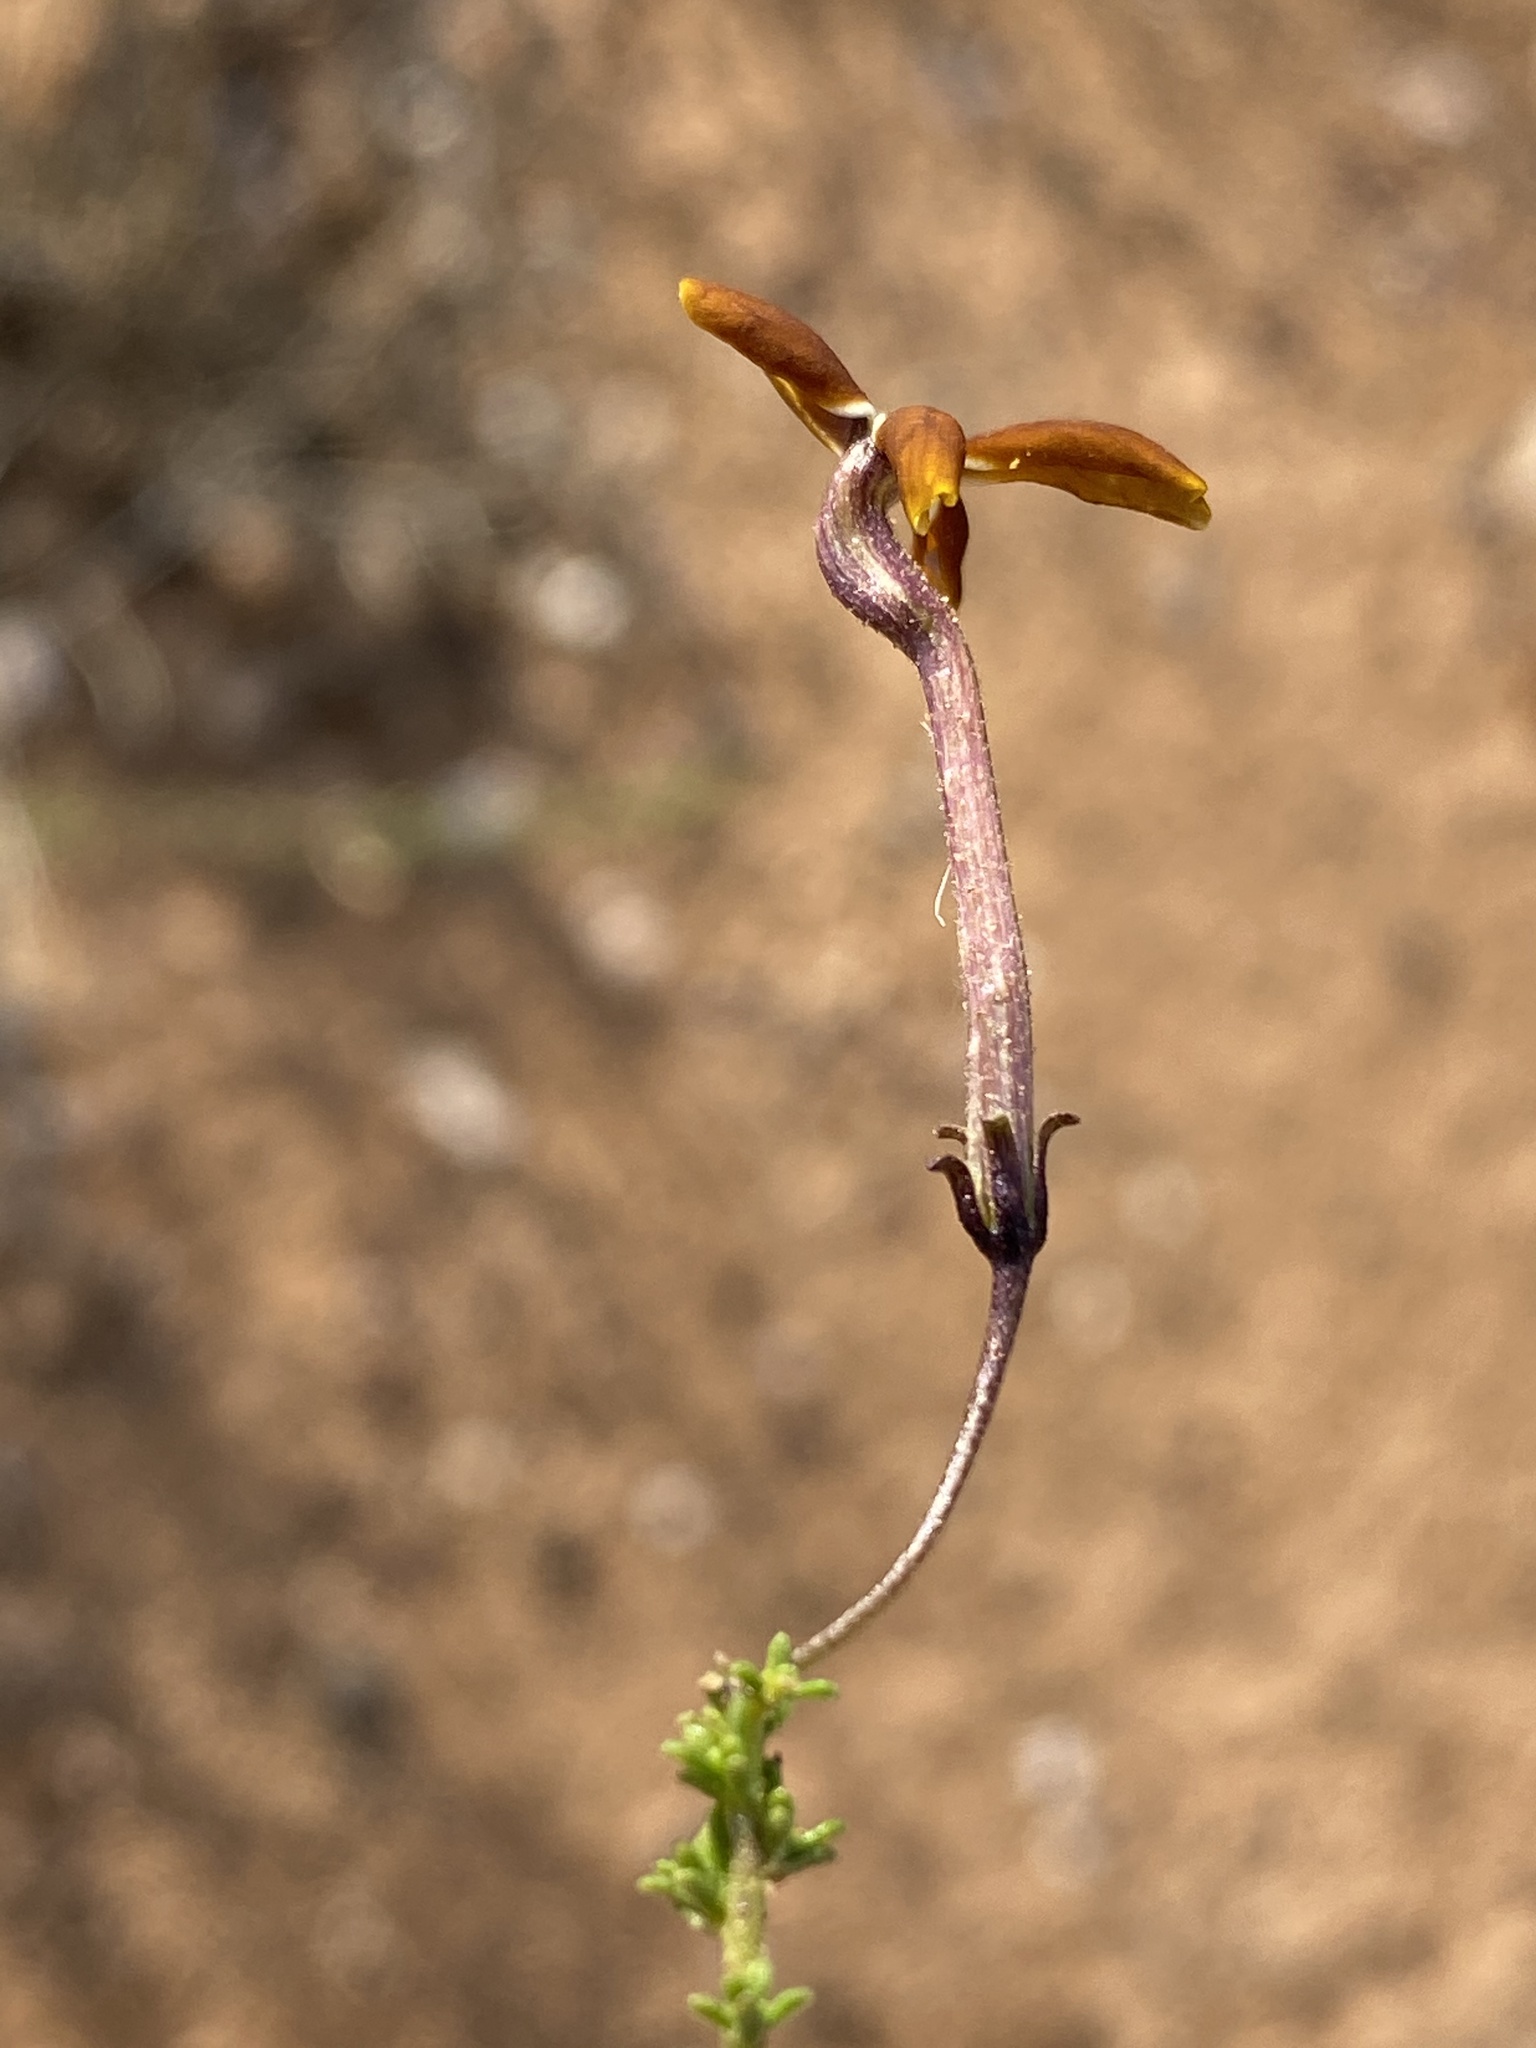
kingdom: Plantae
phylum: Tracheophyta
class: Magnoliopsida
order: Lamiales
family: Scrophulariaceae
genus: Jamesbrittenia
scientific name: Jamesbrittenia atropurpurea
